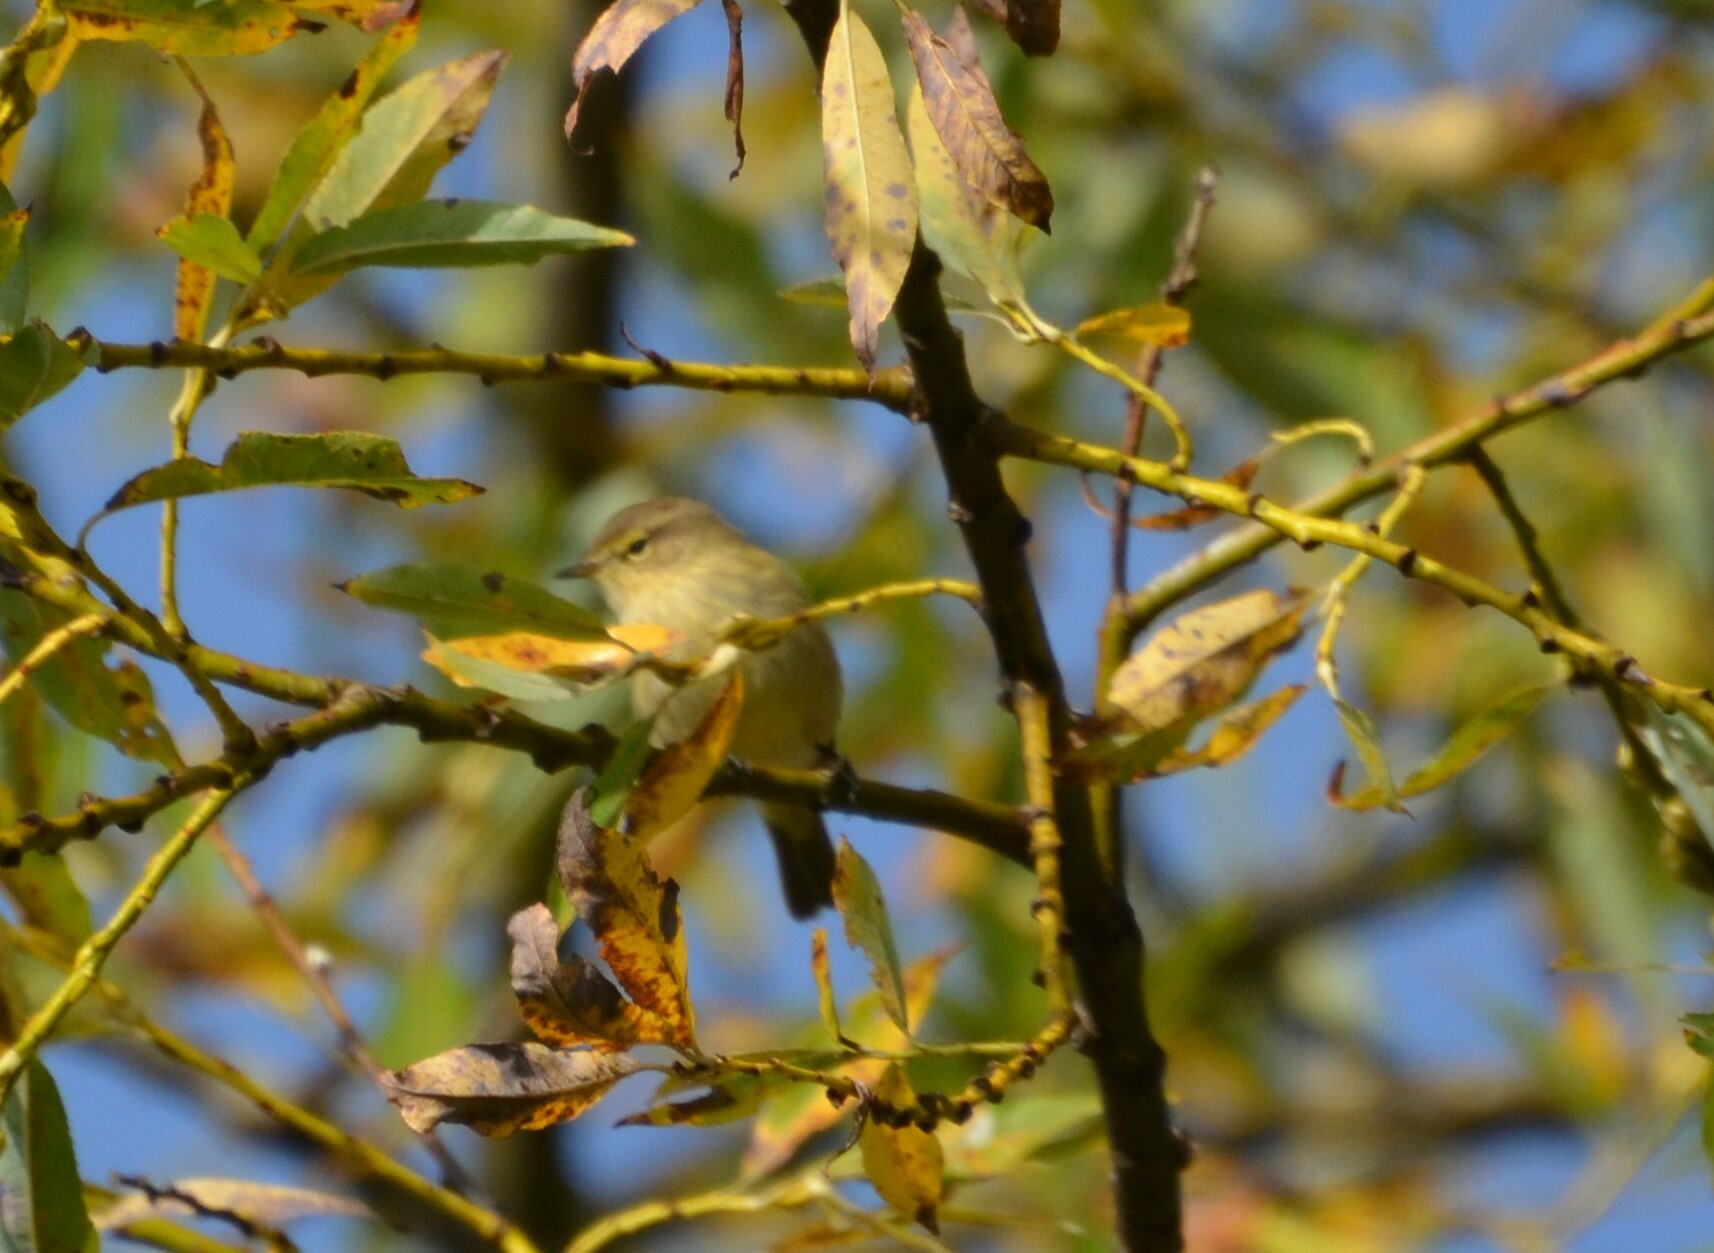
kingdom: Animalia
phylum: Chordata
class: Aves
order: Passeriformes
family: Phylloscopidae
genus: Phylloscopus
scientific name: Phylloscopus collybita
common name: Common chiffchaff
